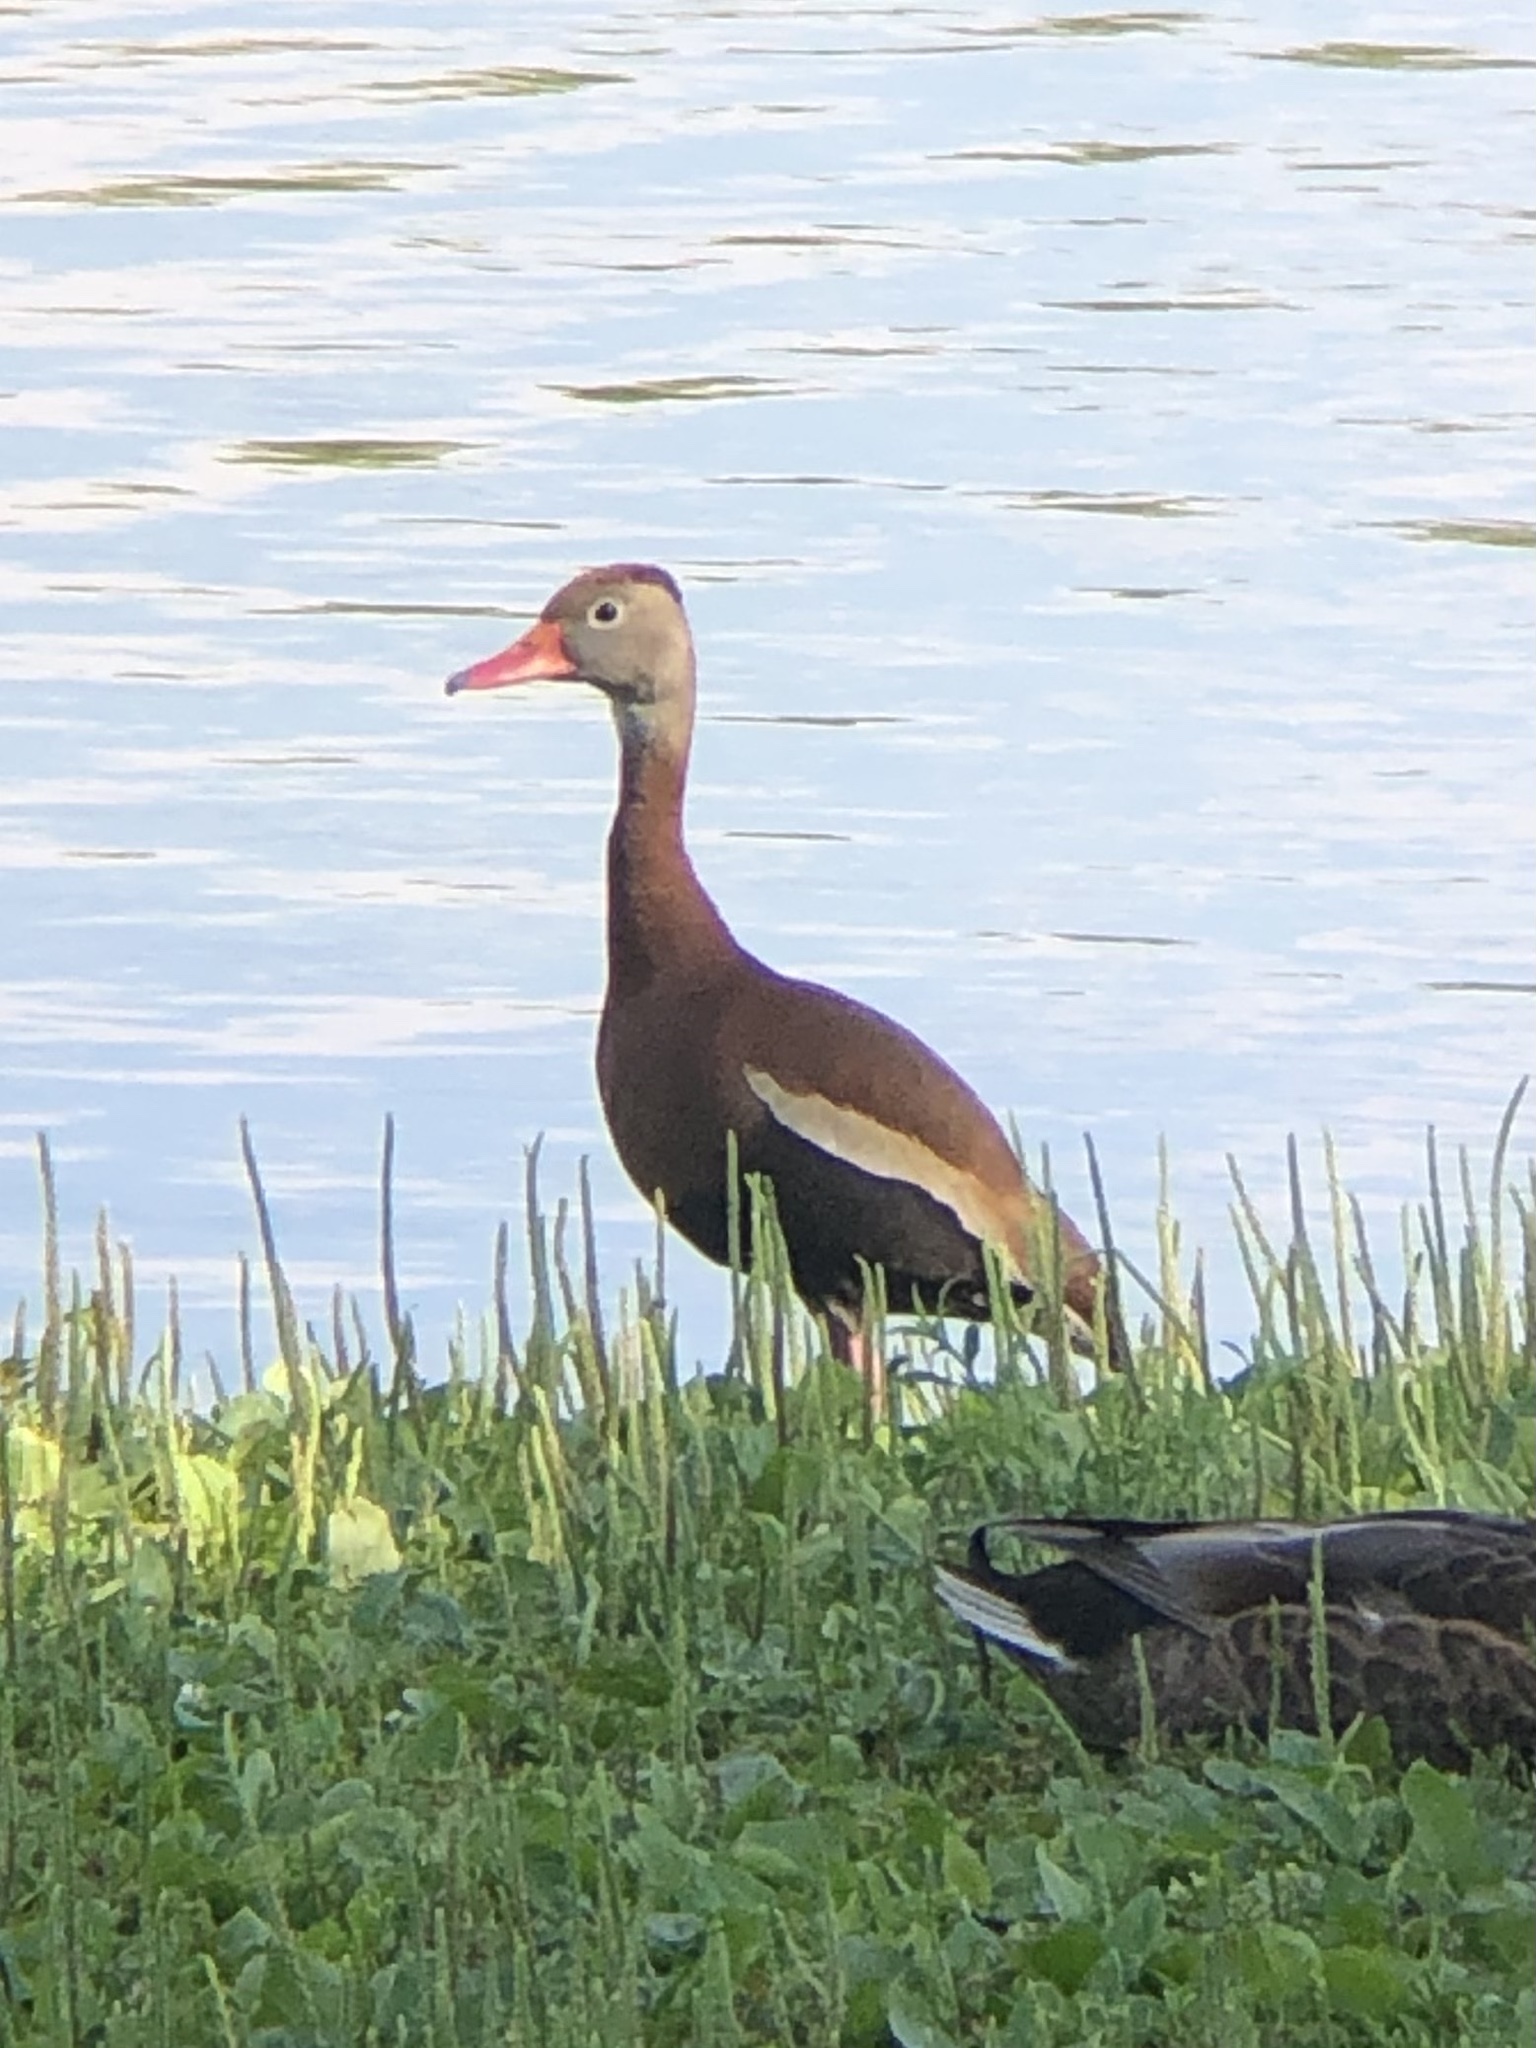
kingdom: Animalia
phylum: Chordata
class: Aves
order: Anseriformes
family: Anatidae
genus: Dendrocygna
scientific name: Dendrocygna autumnalis
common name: Black-bellied whistling duck
